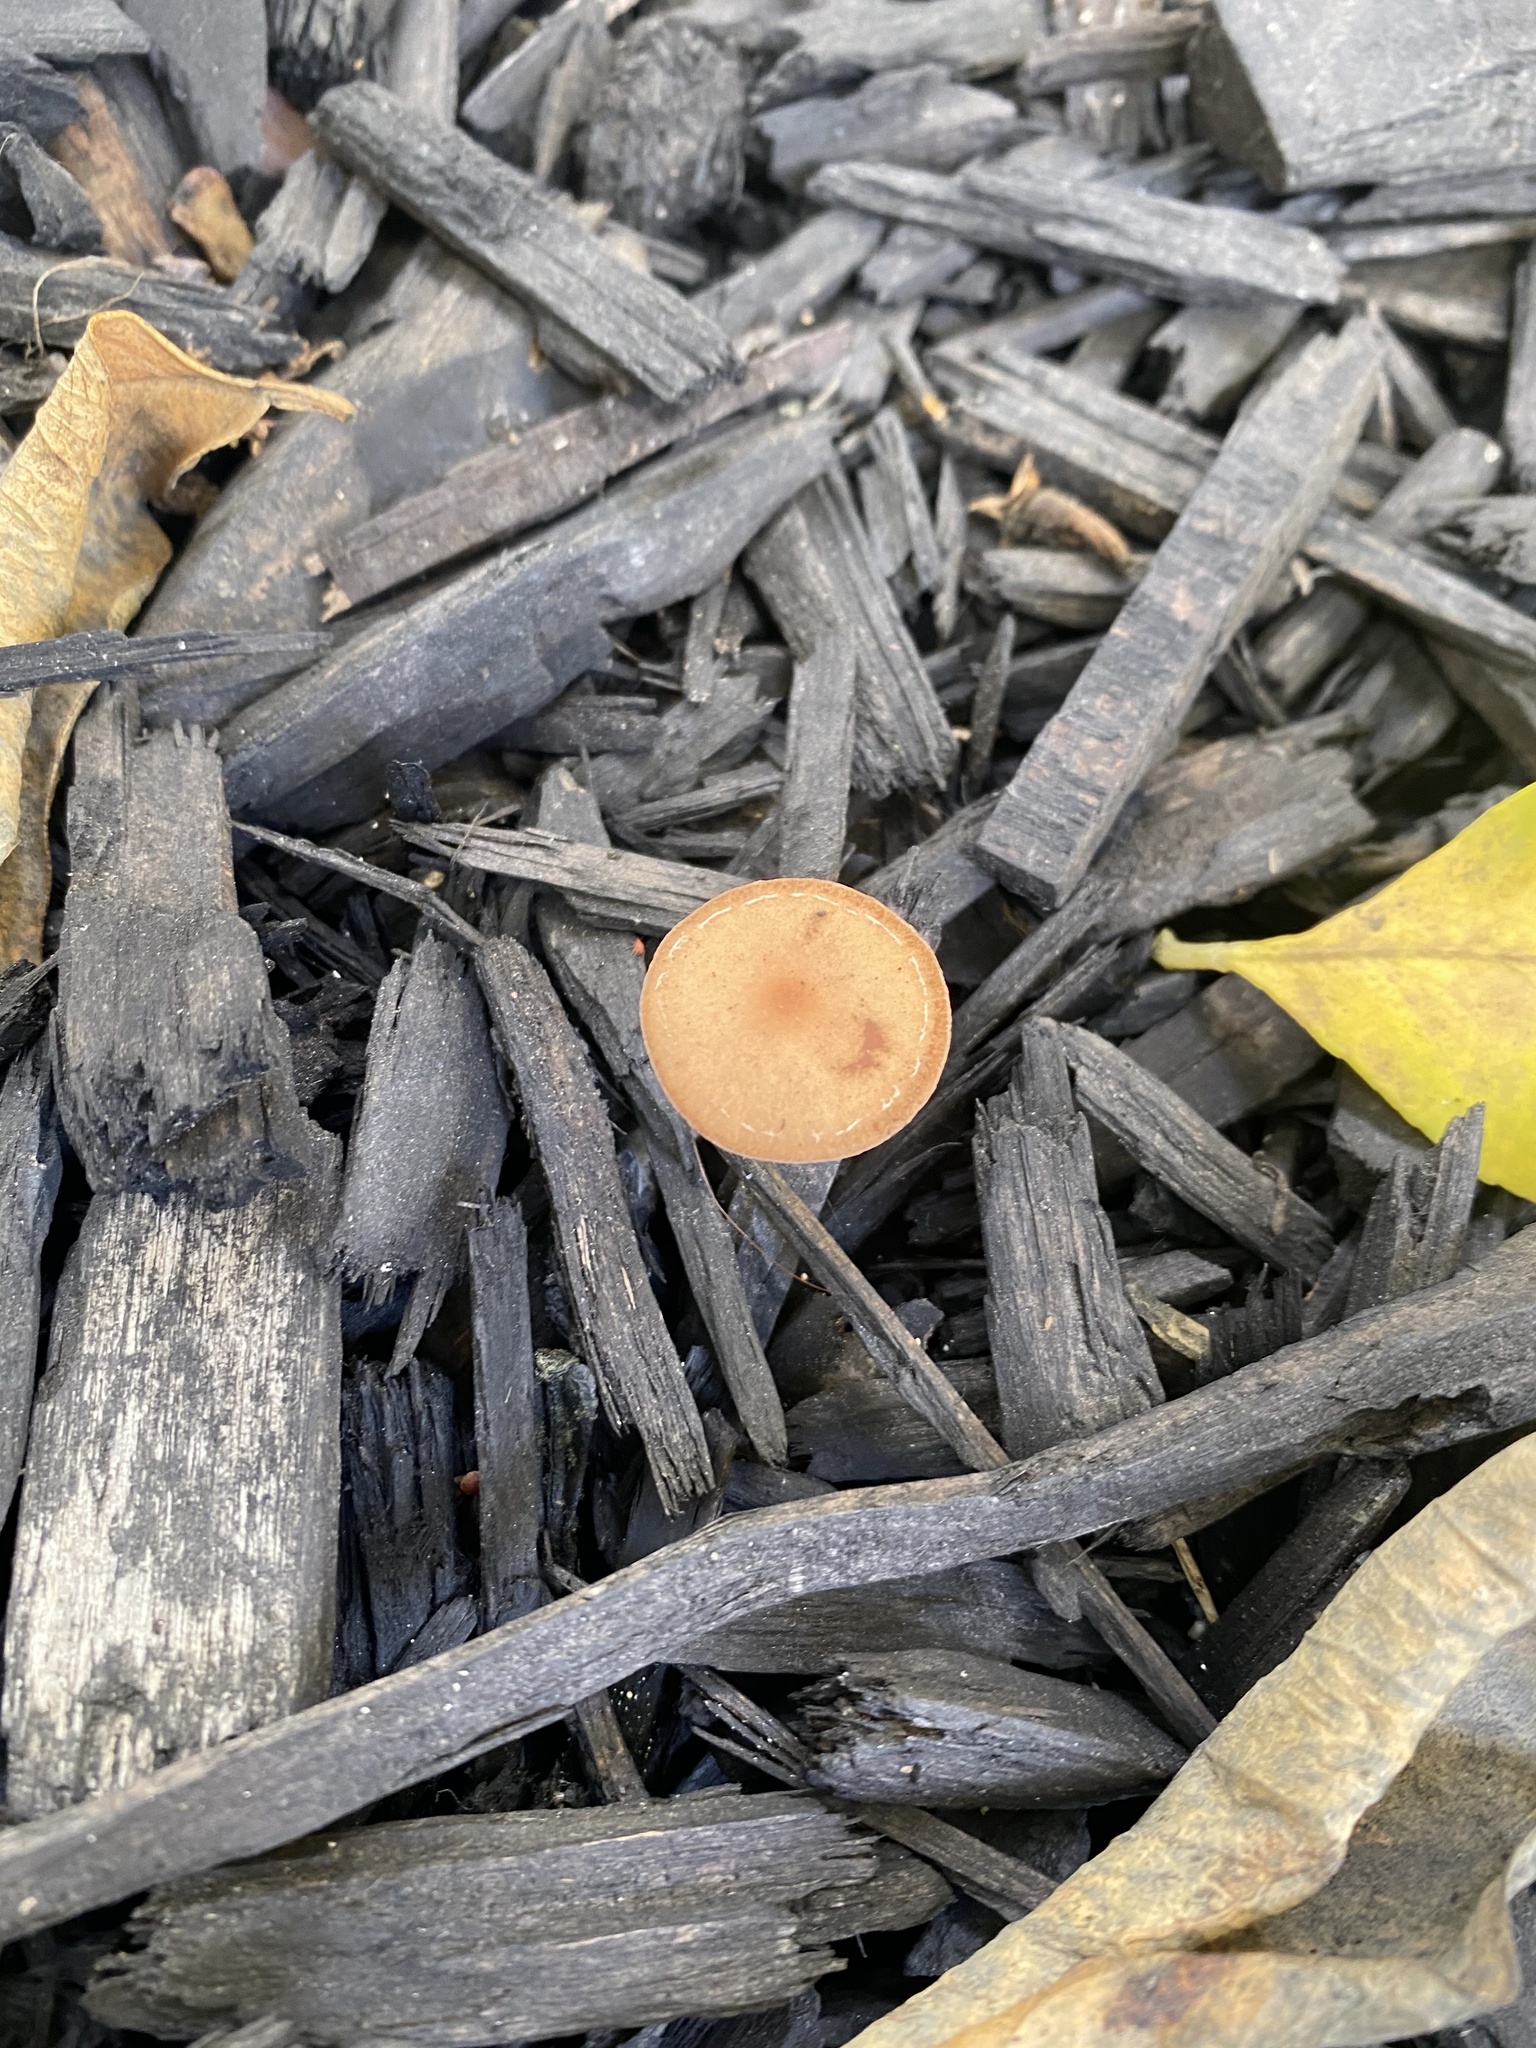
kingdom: Fungi
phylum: Basidiomycota
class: Agaricomycetes
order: Agaricales
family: Tubariaceae
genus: Tubaria
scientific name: Tubaria furfuracea
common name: Scurfy twiglet
